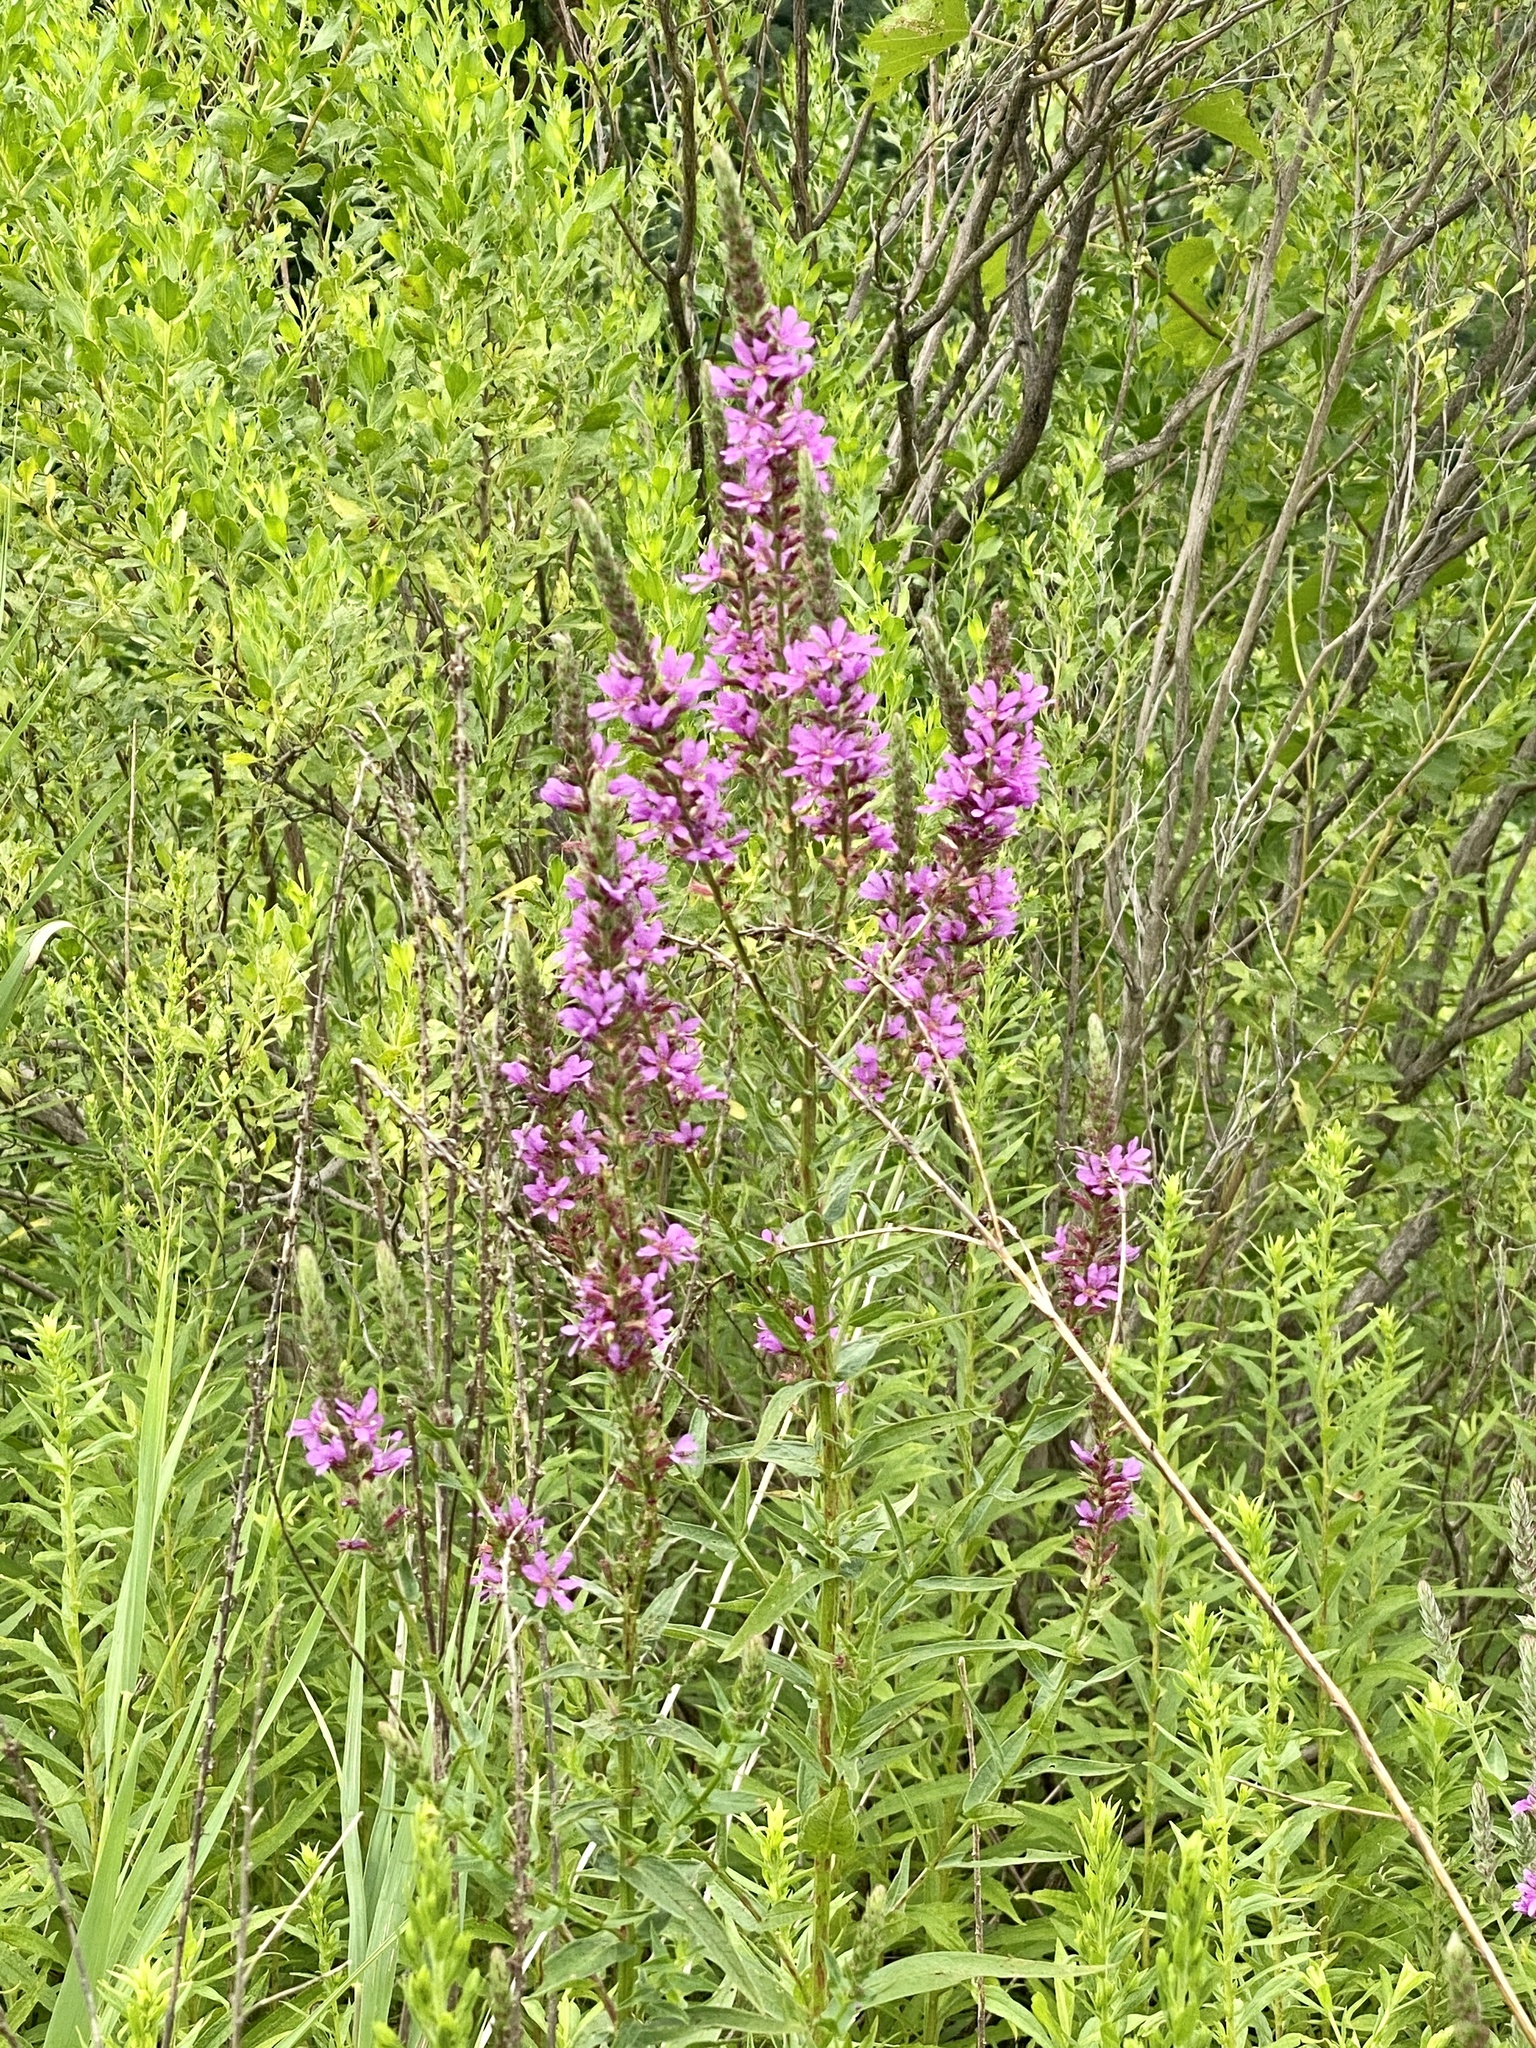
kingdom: Plantae
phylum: Tracheophyta
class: Magnoliopsida
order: Myrtales
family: Lythraceae
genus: Lythrum
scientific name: Lythrum salicaria
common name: Purple loosestrife
